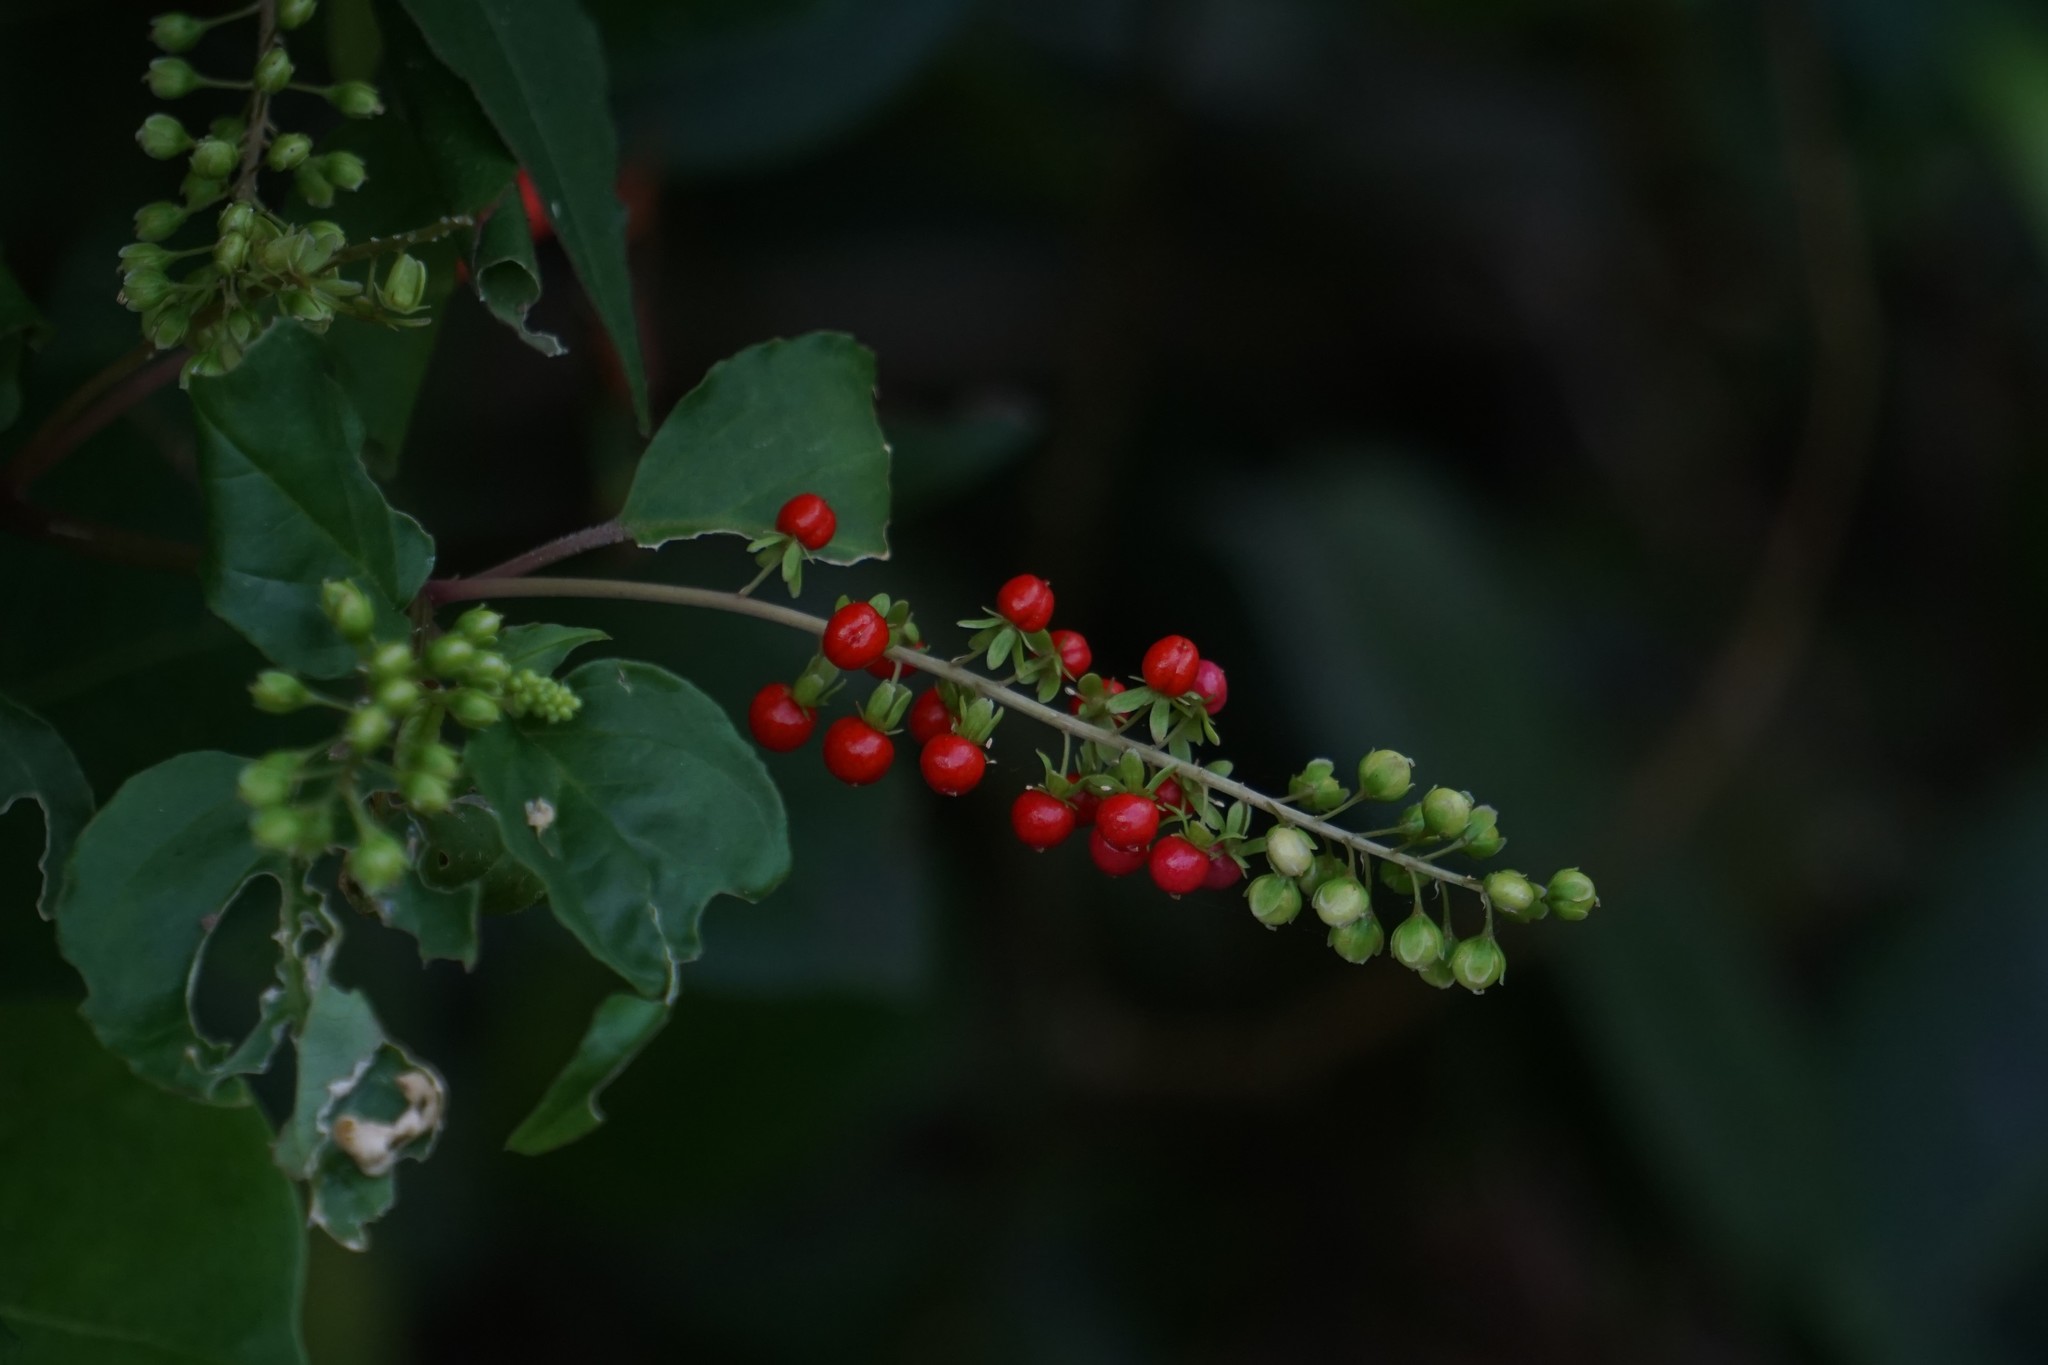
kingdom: Plantae
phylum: Tracheophyta
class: Magnoliopsida
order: Caryophyllales
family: Phytolaccaceae
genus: Rivina
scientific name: Rivina humilis
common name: Rougeplant
